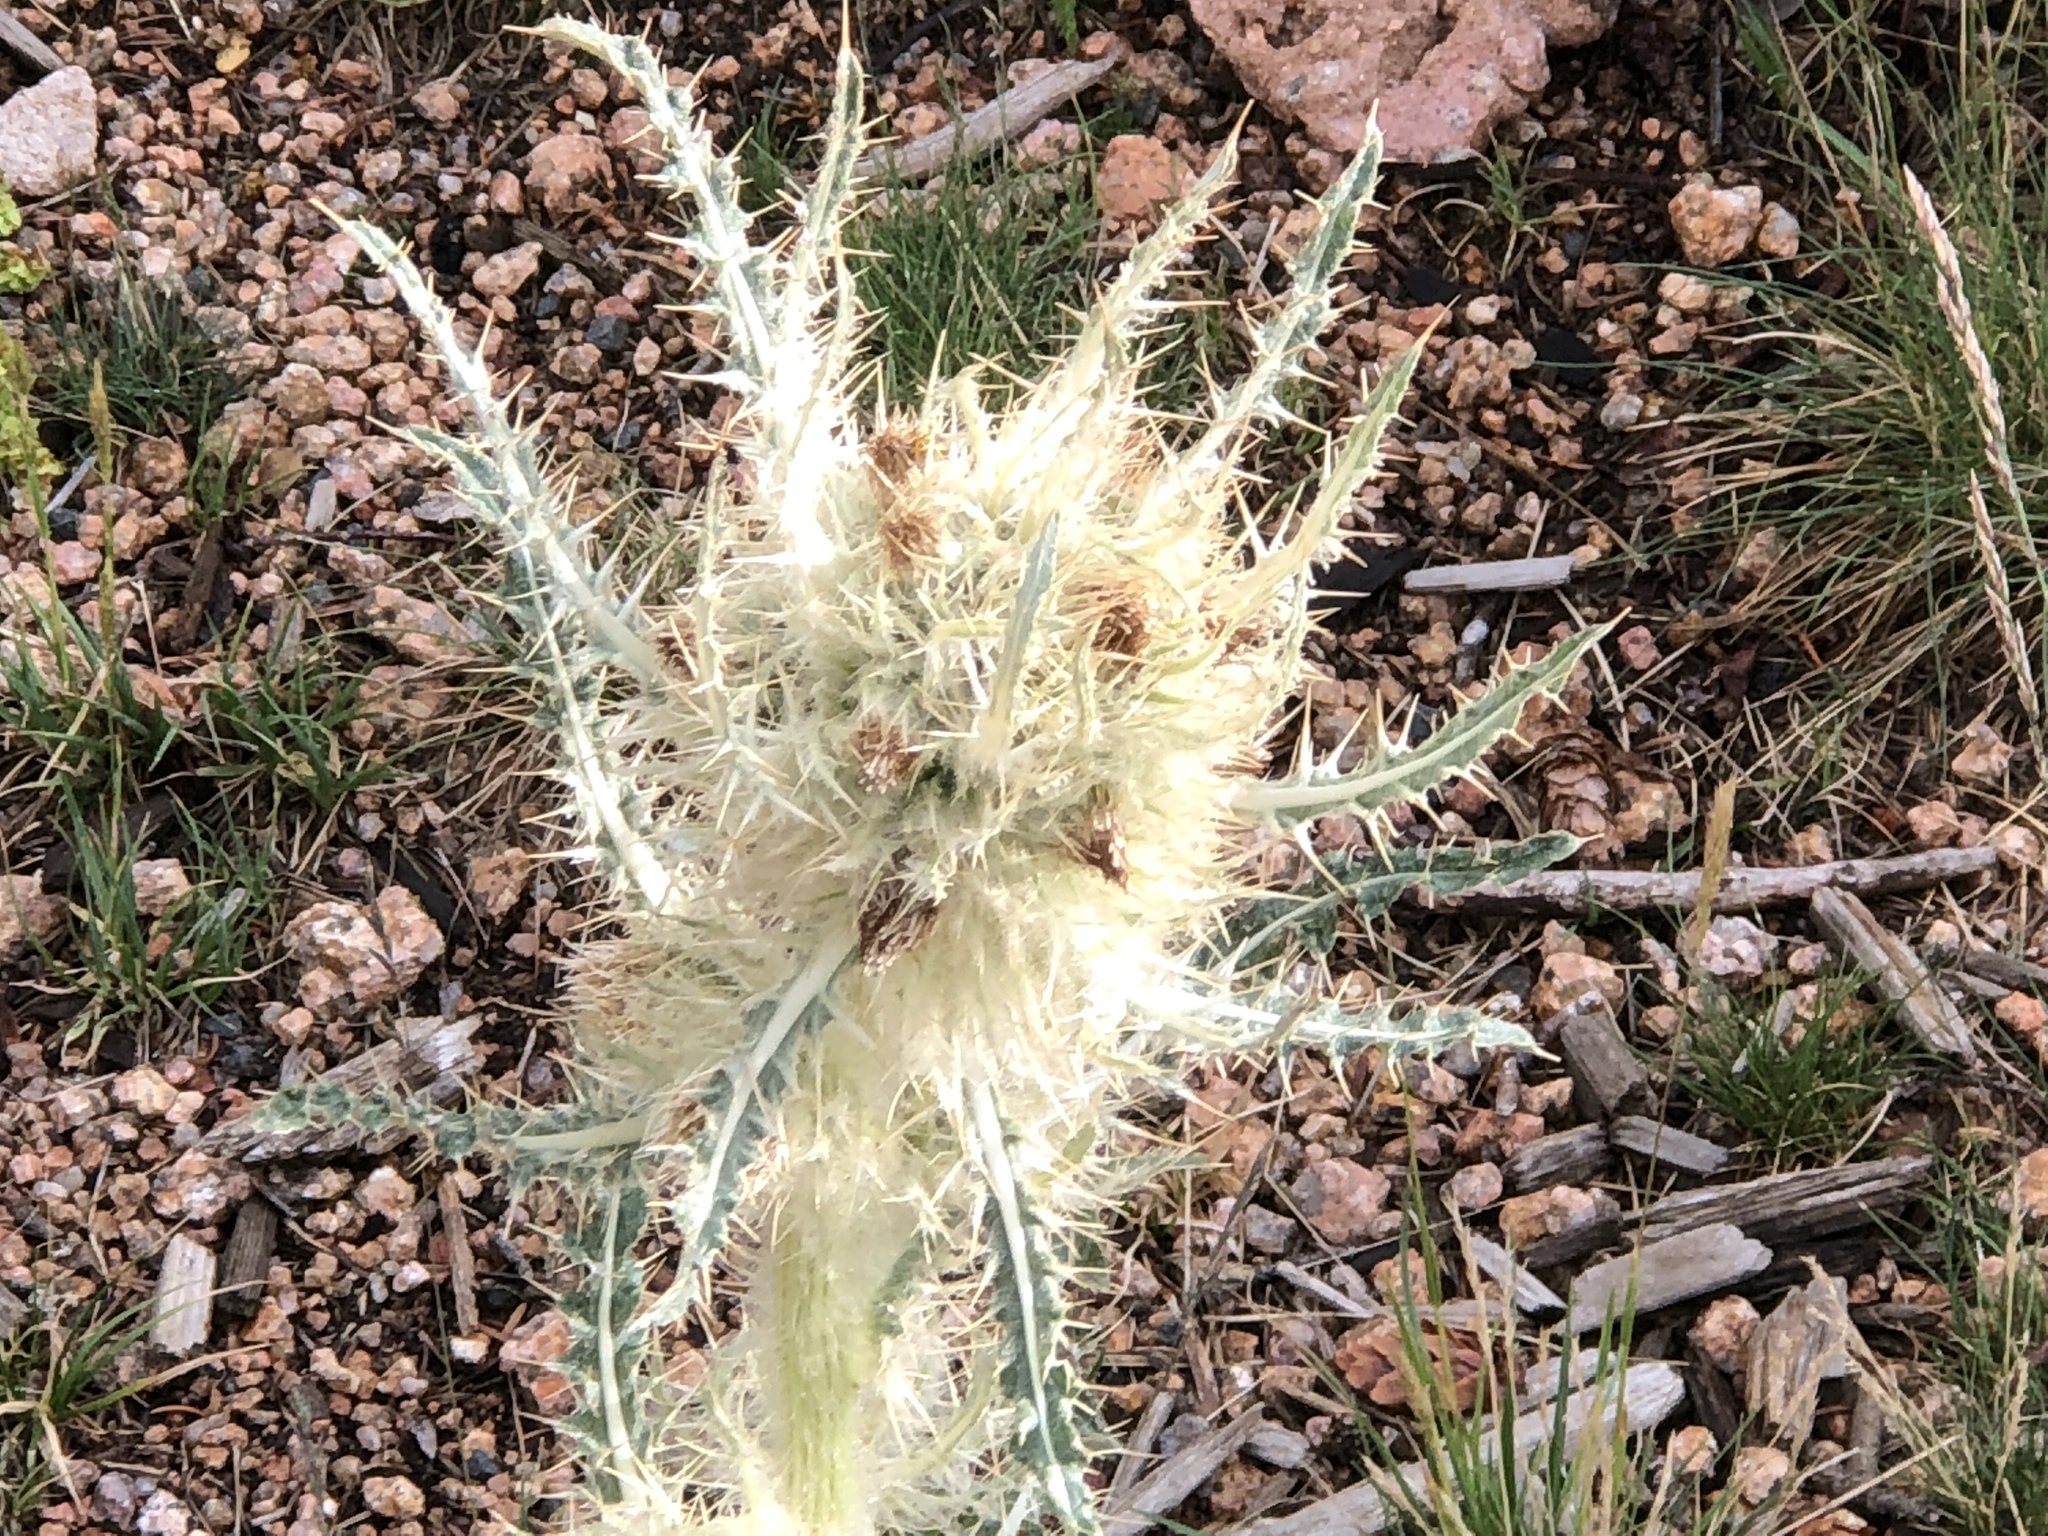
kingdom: Plantae
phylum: Tracheophyta
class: Magnoliopsida
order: Asterales
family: Asteraceae
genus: Cirsium
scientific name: Cirsium scopulorum
